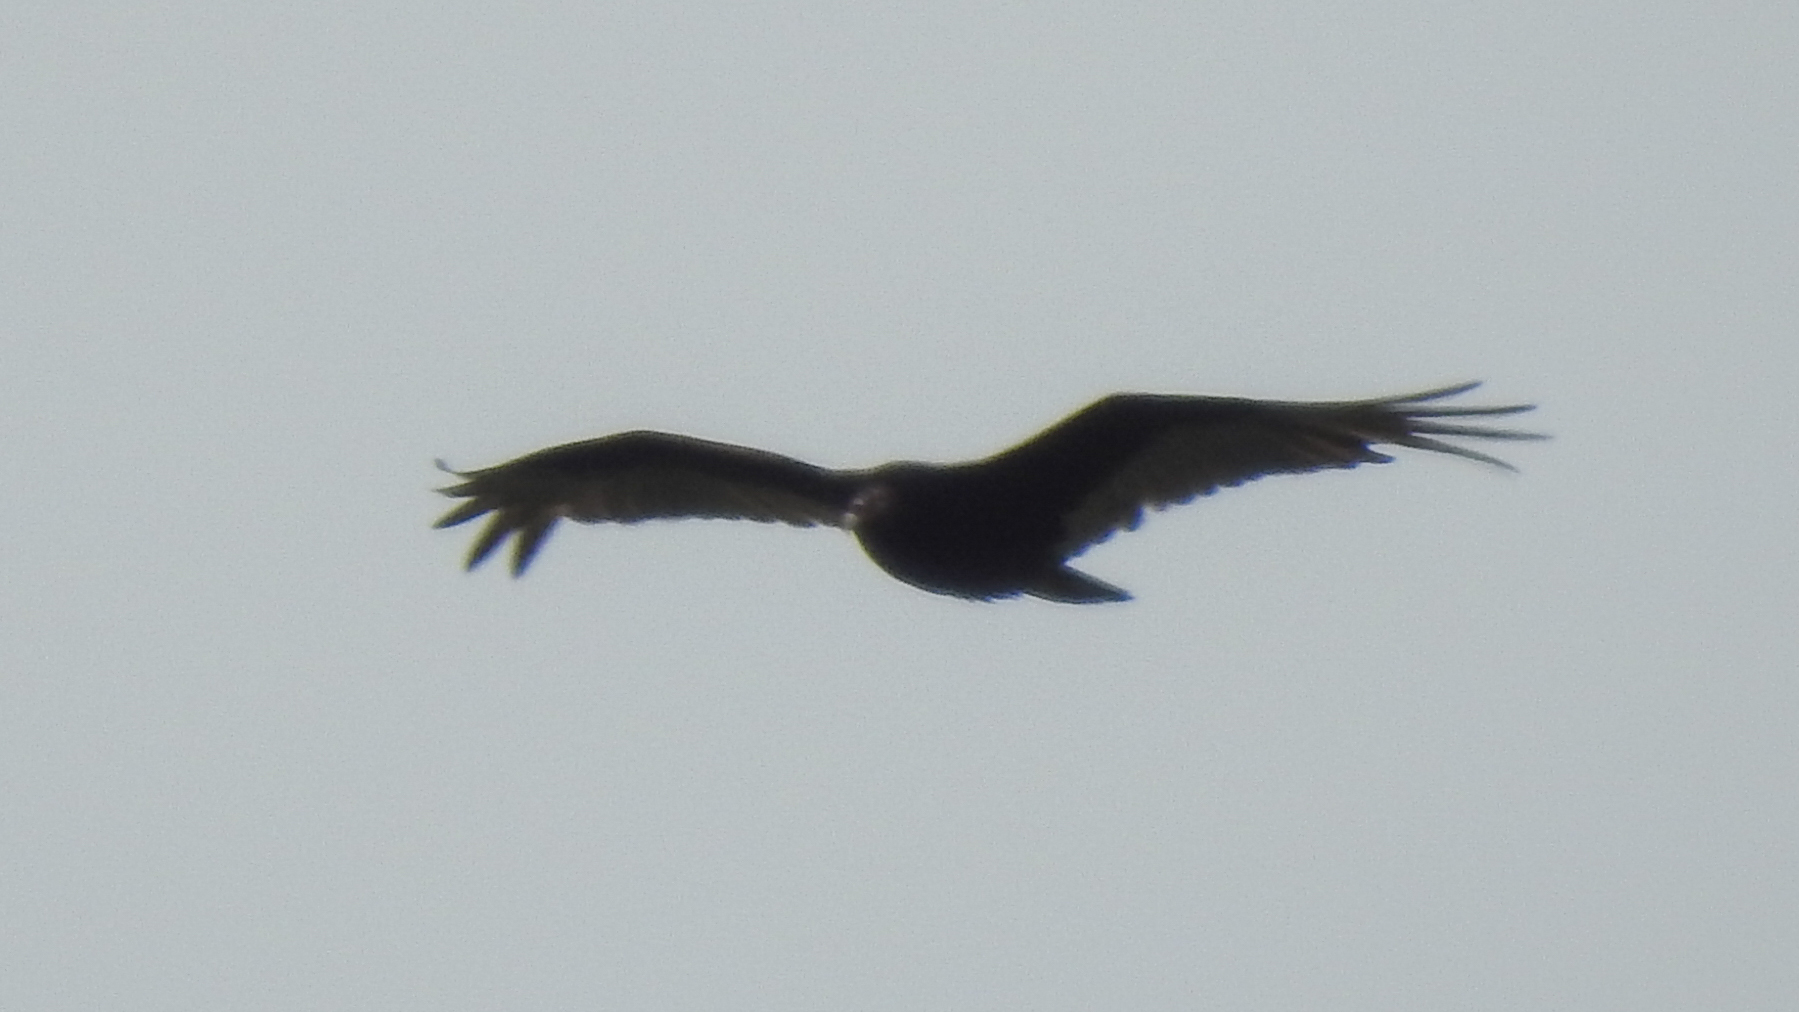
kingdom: Animalia
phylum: Chordata
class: Aves
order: Accipitriformes
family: Cathartidae
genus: Cathartes
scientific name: Cathartes aura
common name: Turkey vulture
